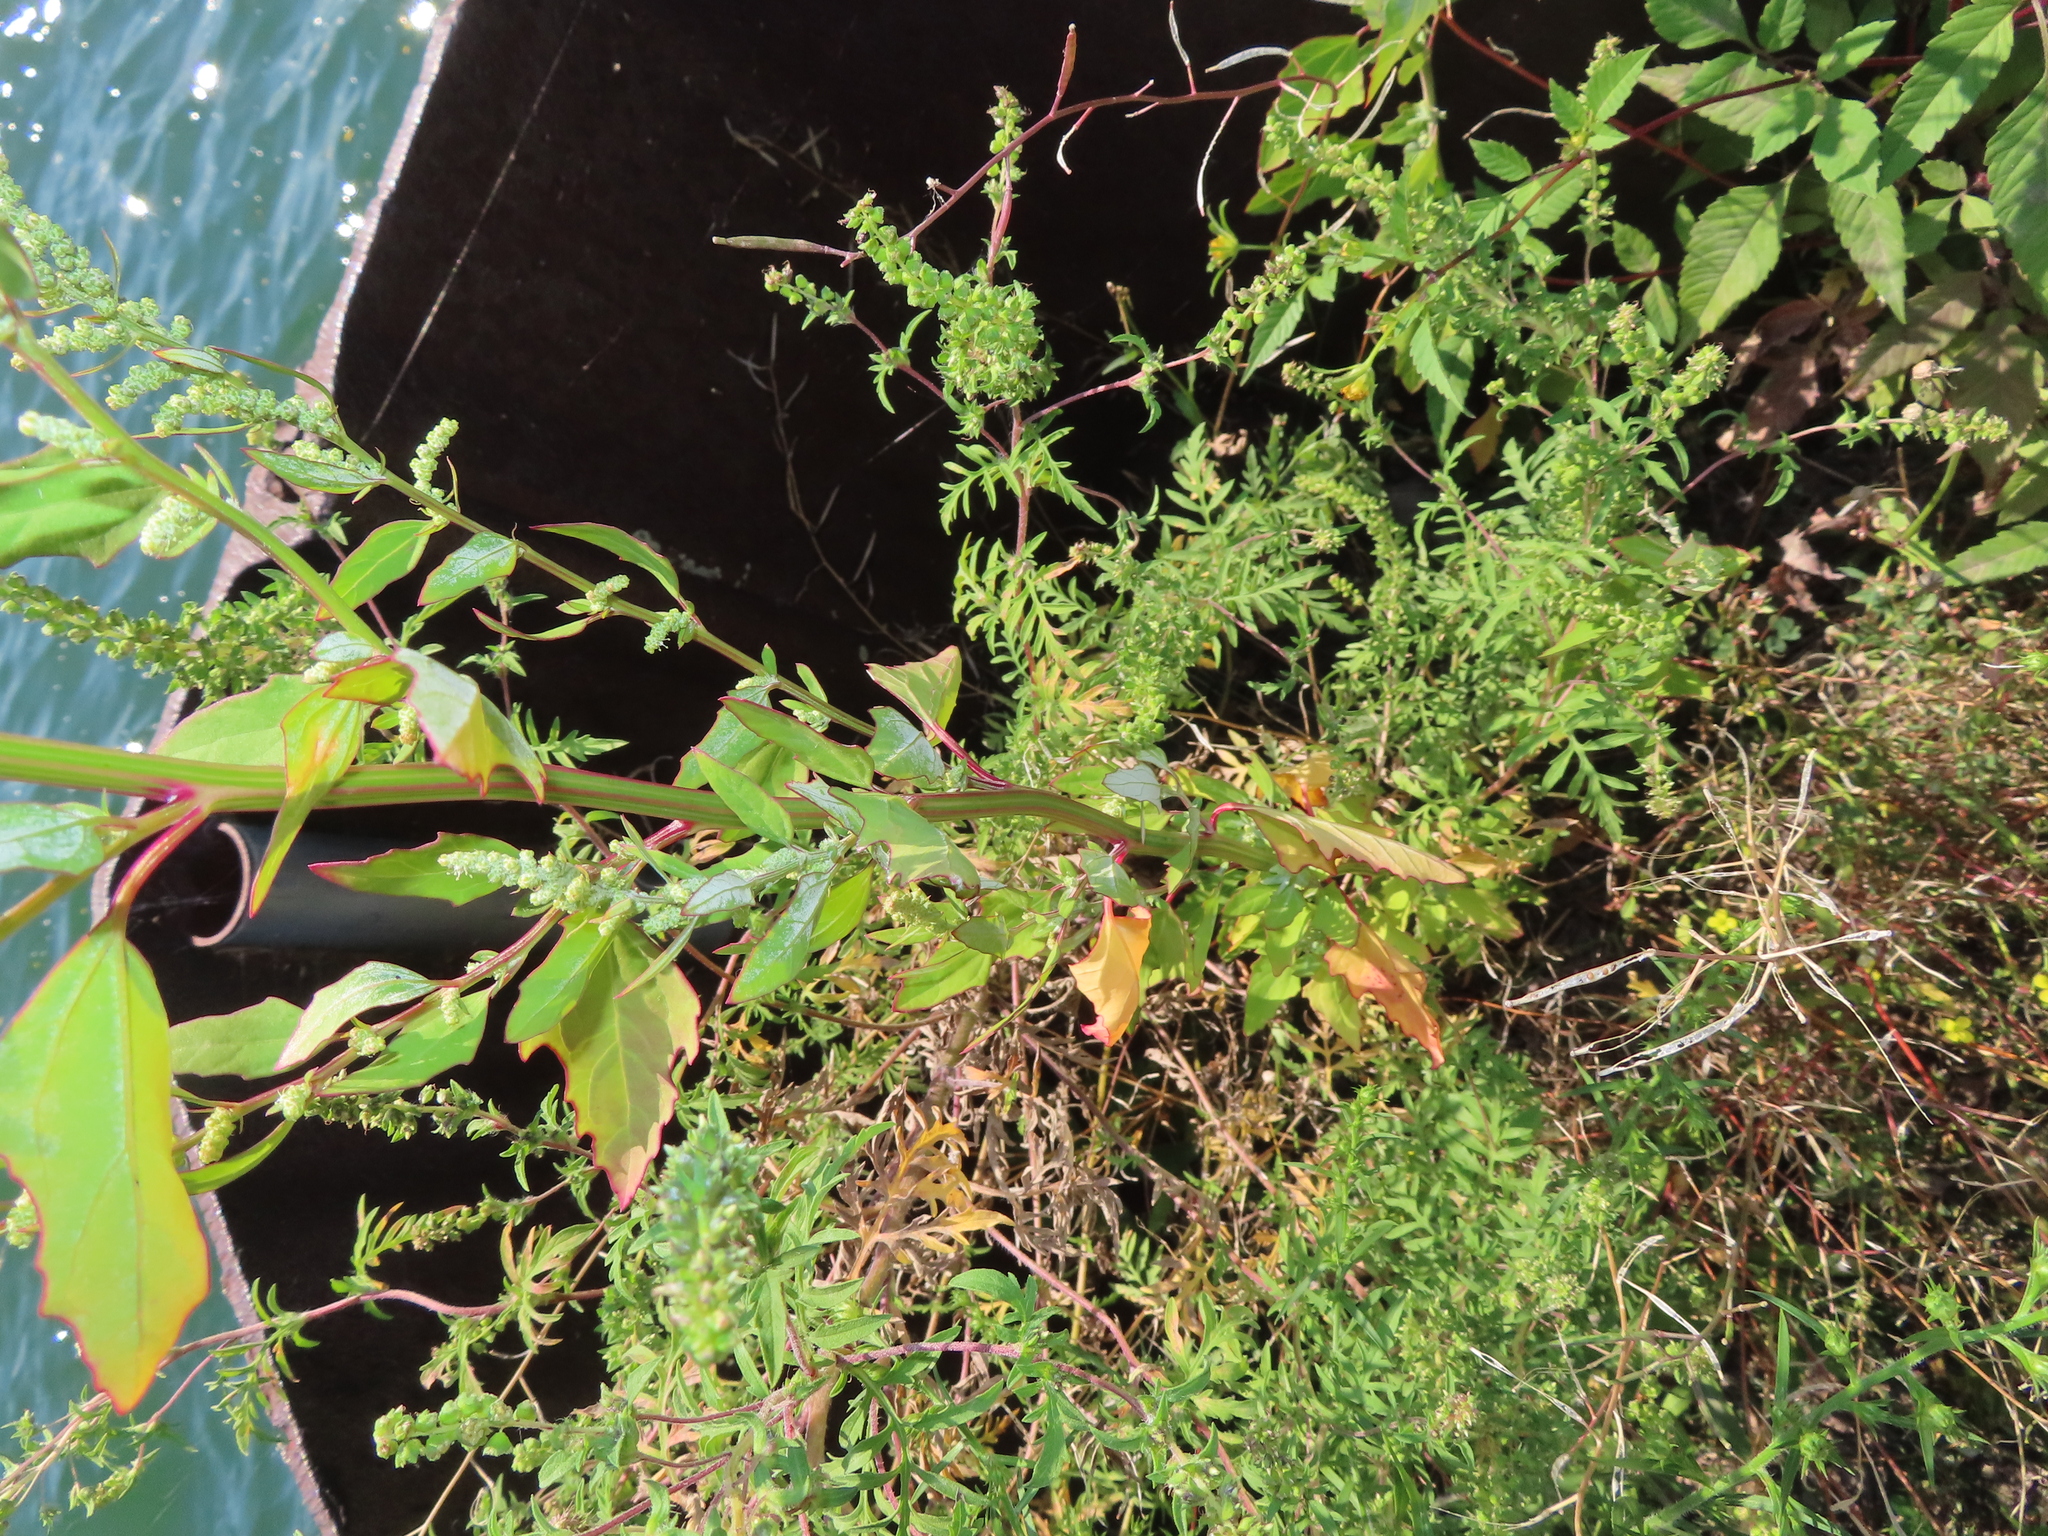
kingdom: Plantae
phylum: Tracheophyta
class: Magnoliopsida
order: Caryophyllales
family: Amaranthaceae
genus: Chenopodium
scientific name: Chenopodium album
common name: Fat-hen
